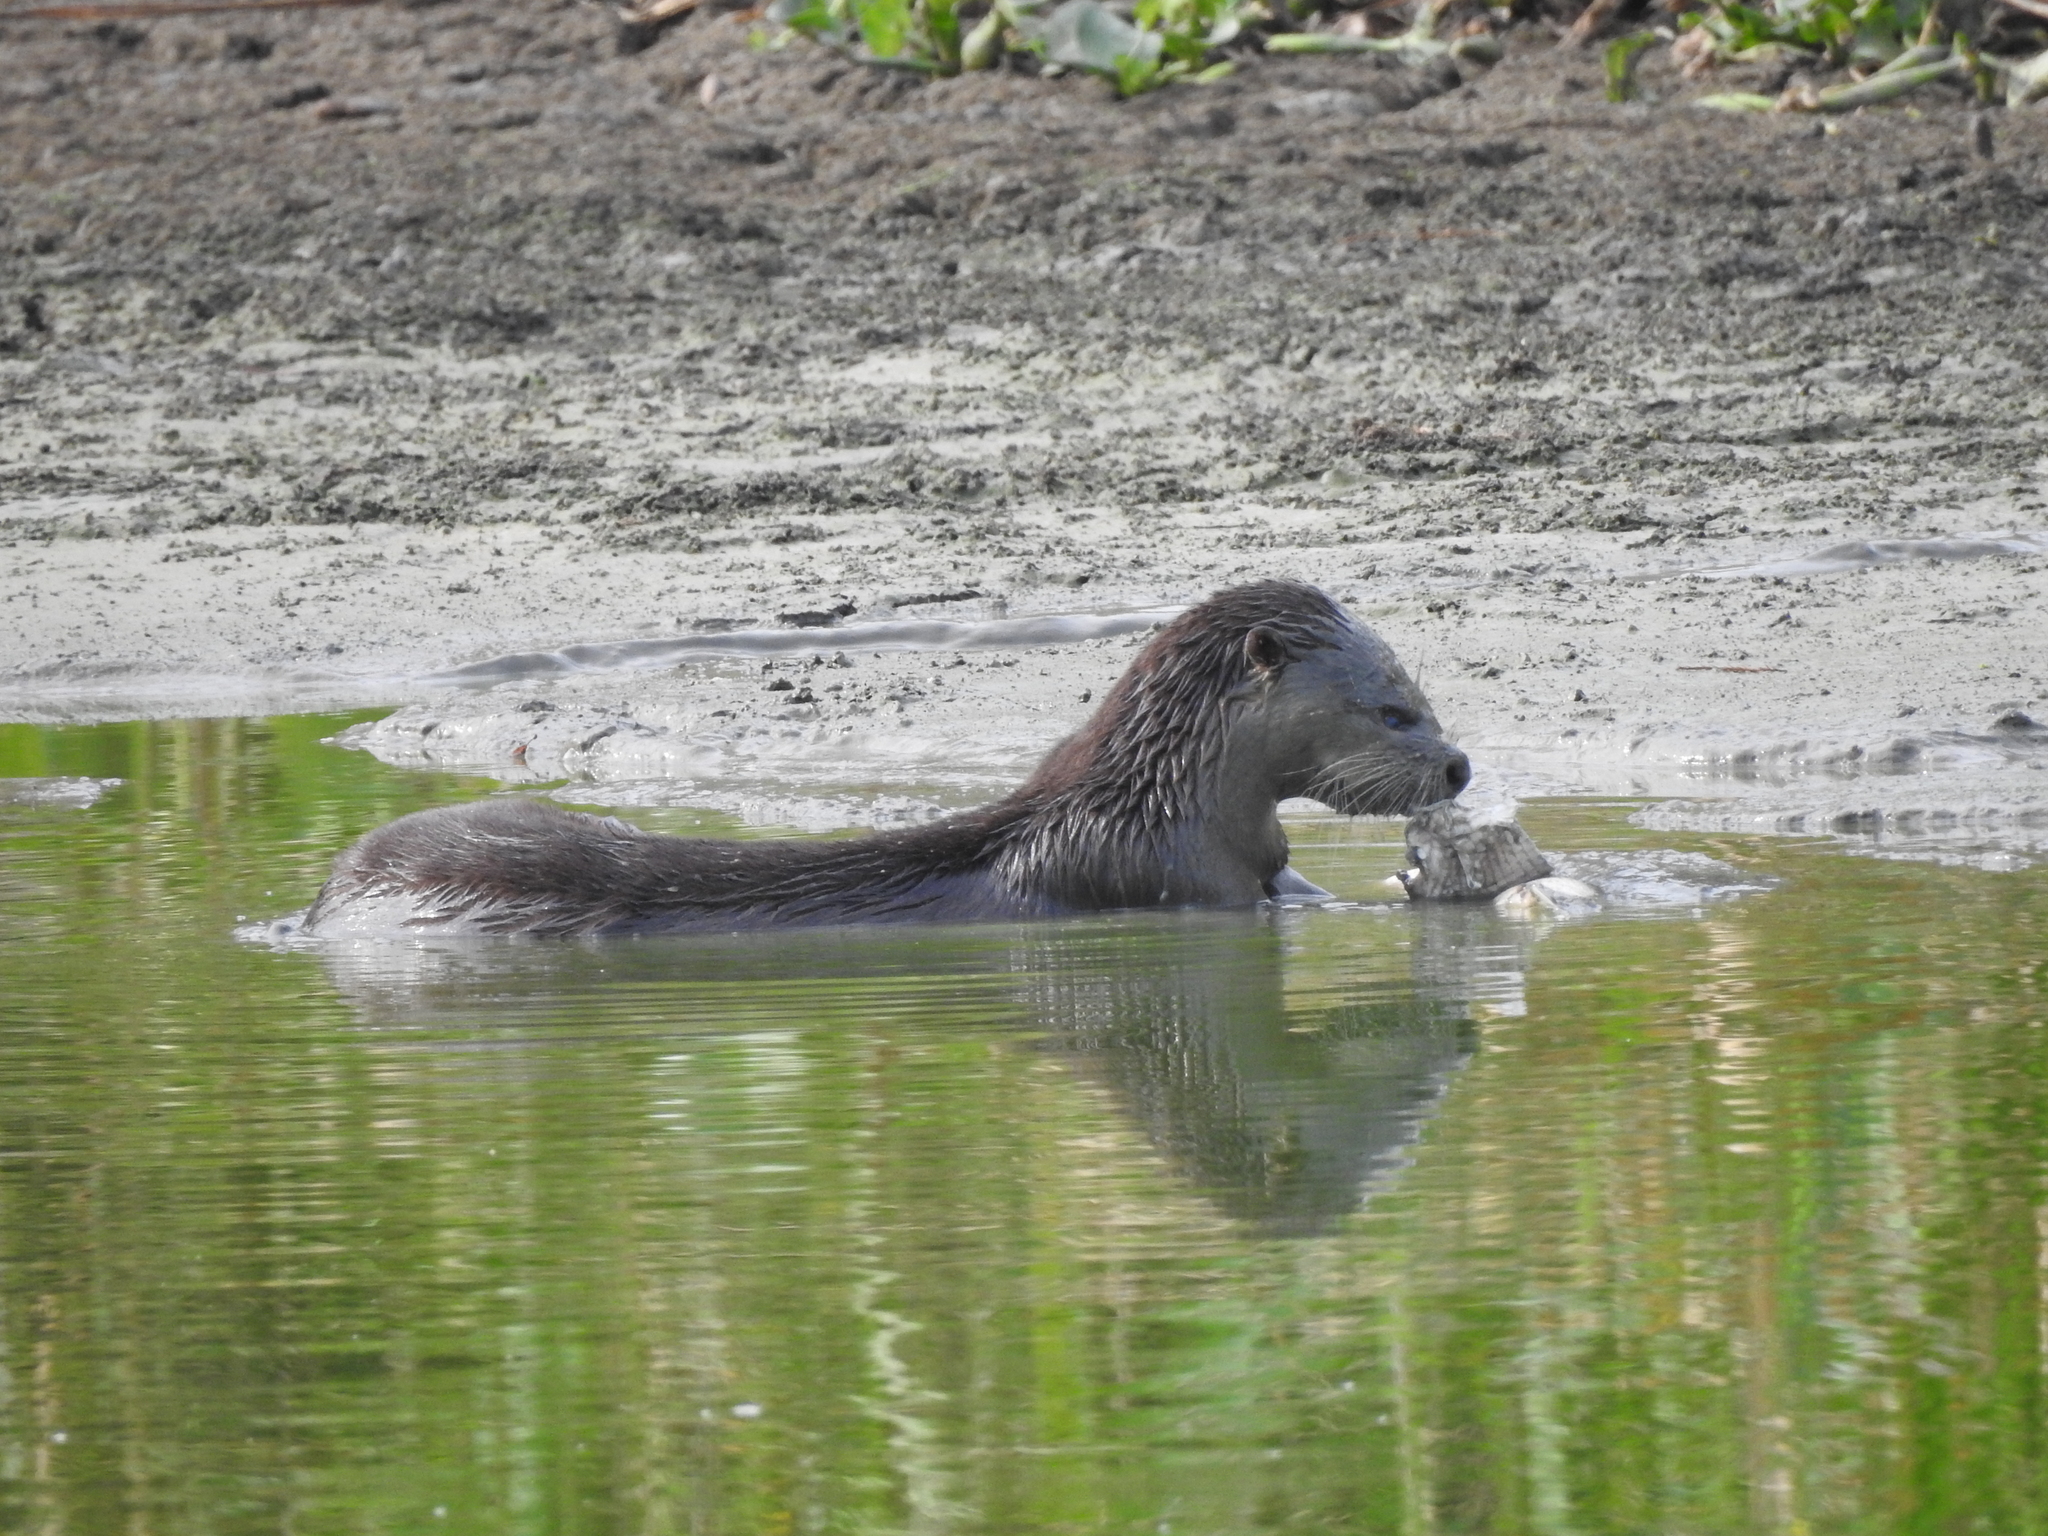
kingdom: Animalia
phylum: Chordata
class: Mammalia
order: Carnivora
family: Mustelidae
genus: Lontra
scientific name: Lontra canadensis
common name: North american river otter
